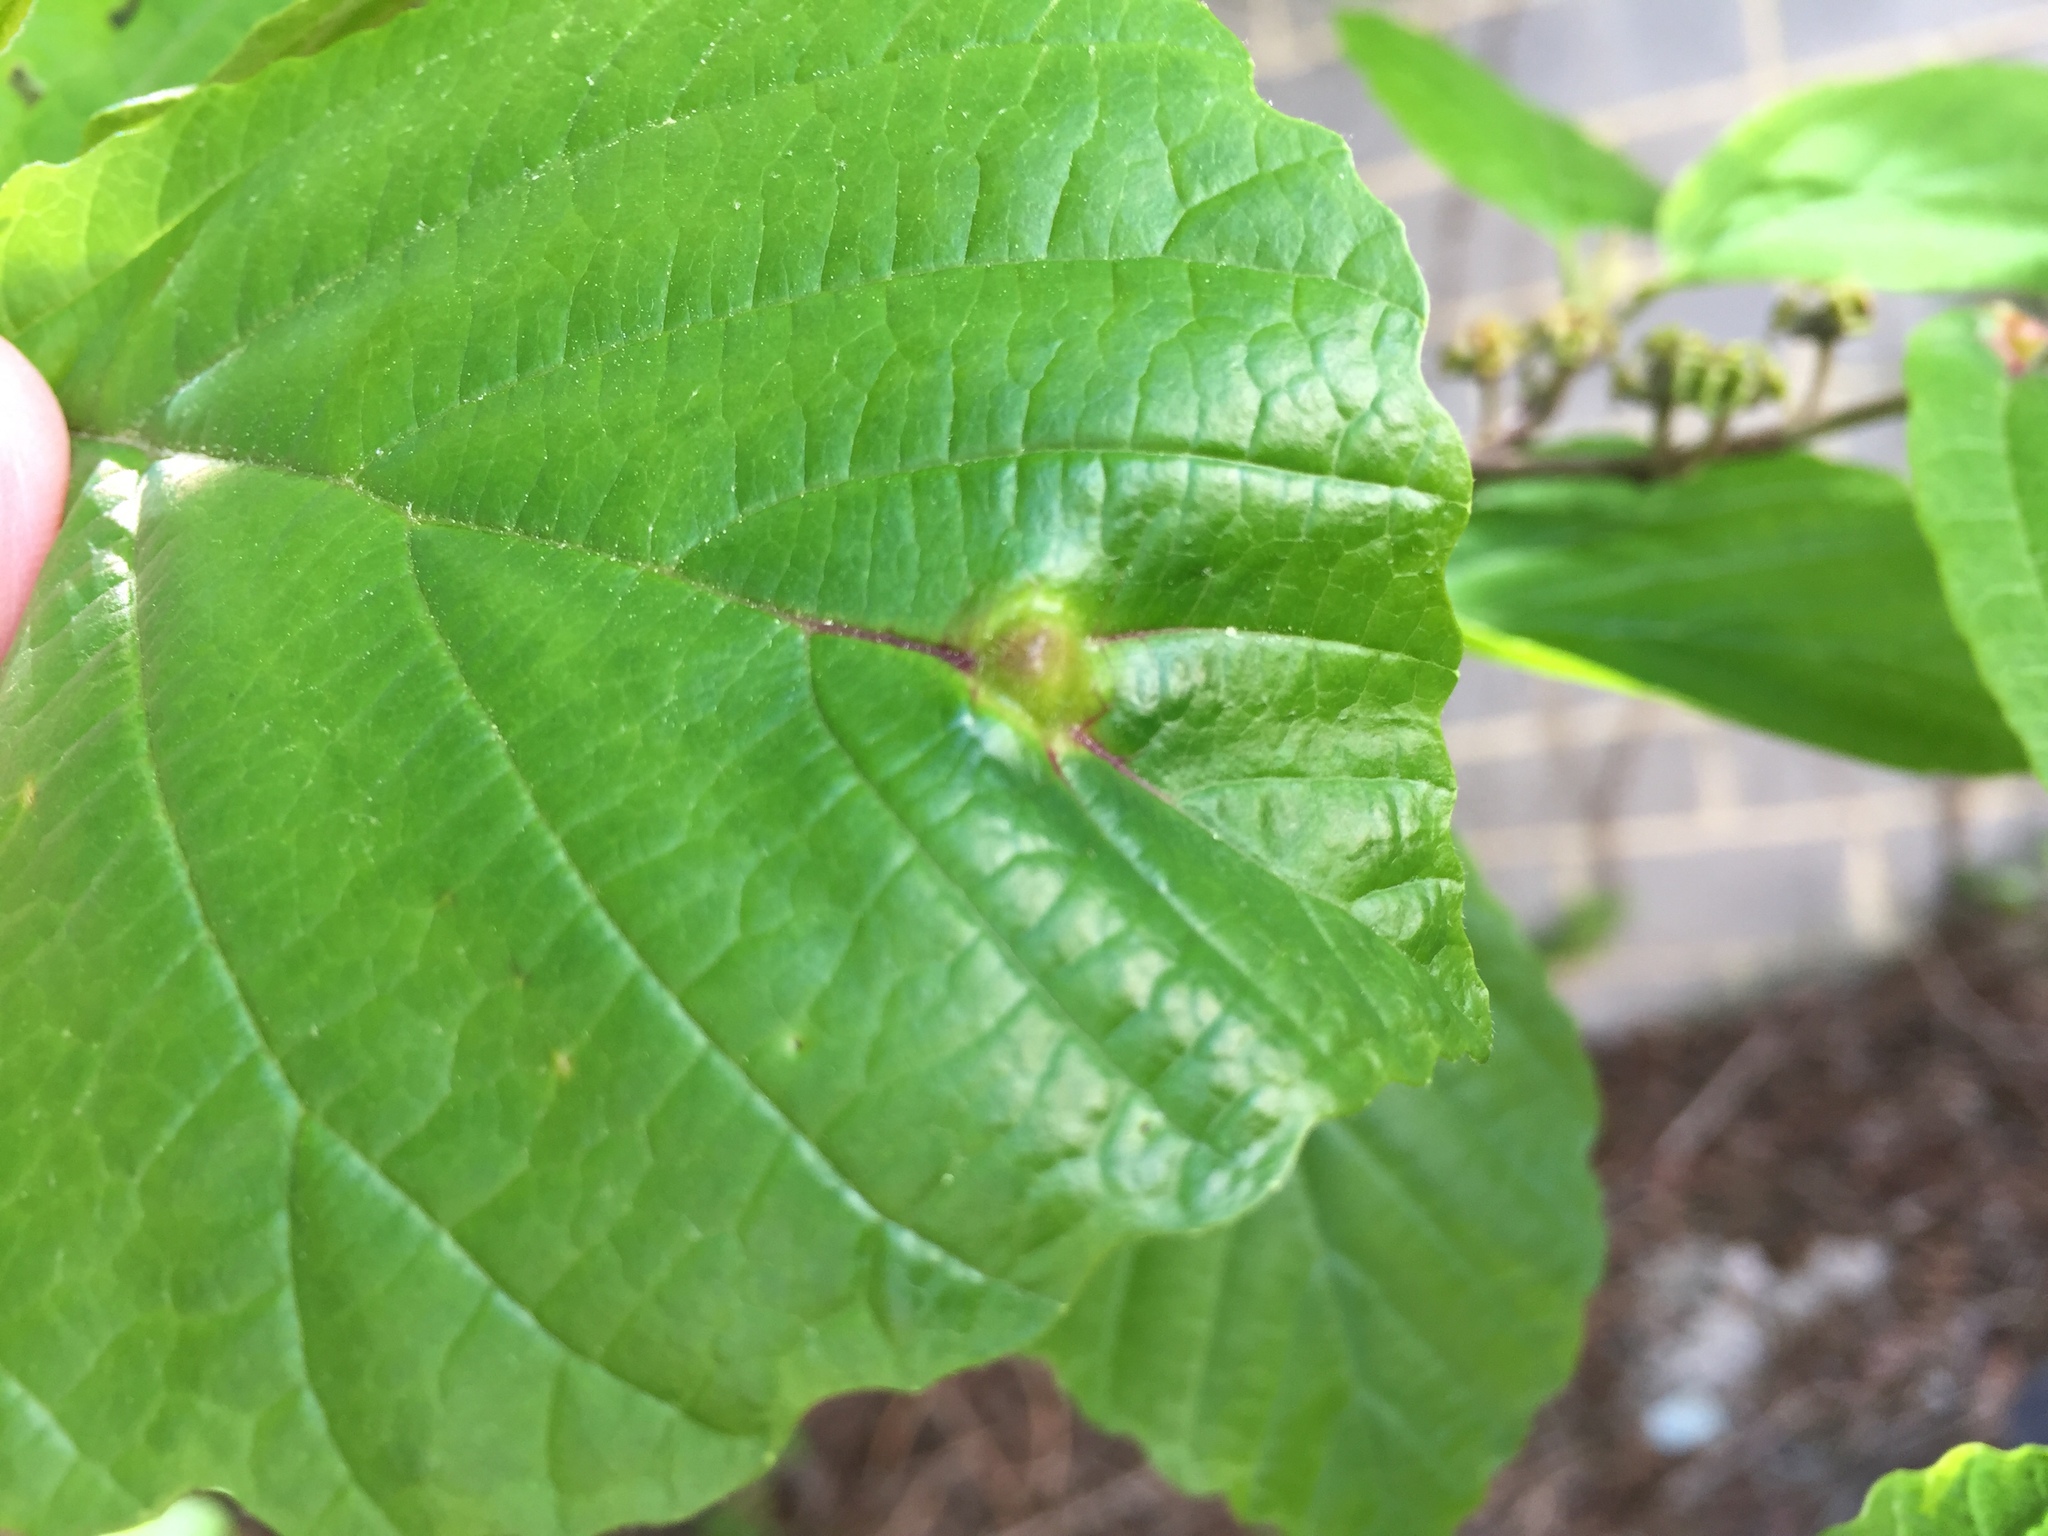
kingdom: Animalia
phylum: Arthropoda
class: Insecta
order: Hemiptera
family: Aphididae
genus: Hormaphis
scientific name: Hormaphis hamamelidis
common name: Witch-hazel cone gall aphid
